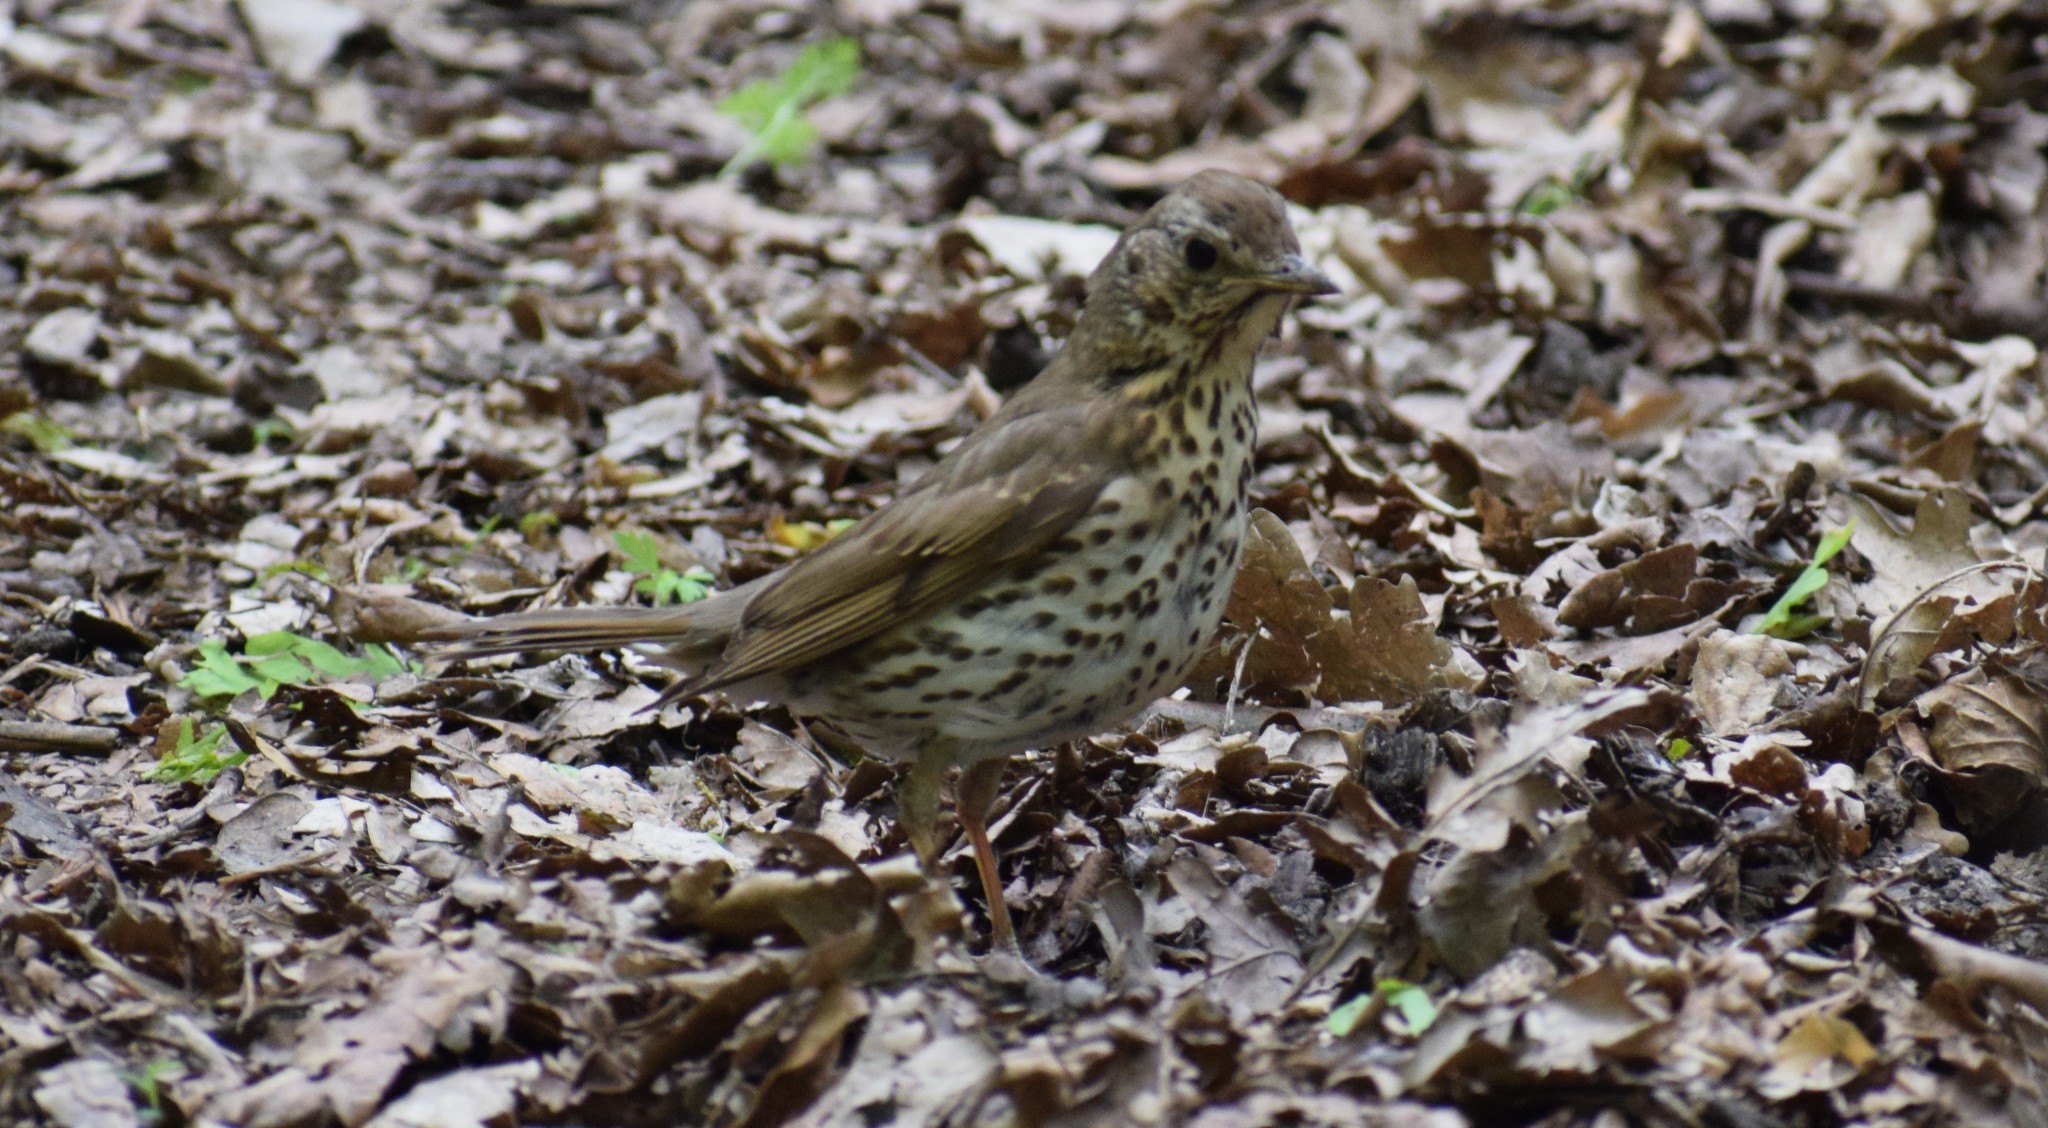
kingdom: Animalia
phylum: Chordata
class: Aves
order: Passeriformes
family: Turdidae
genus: Turdus
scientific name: Turdus philomelos
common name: Song thrush
